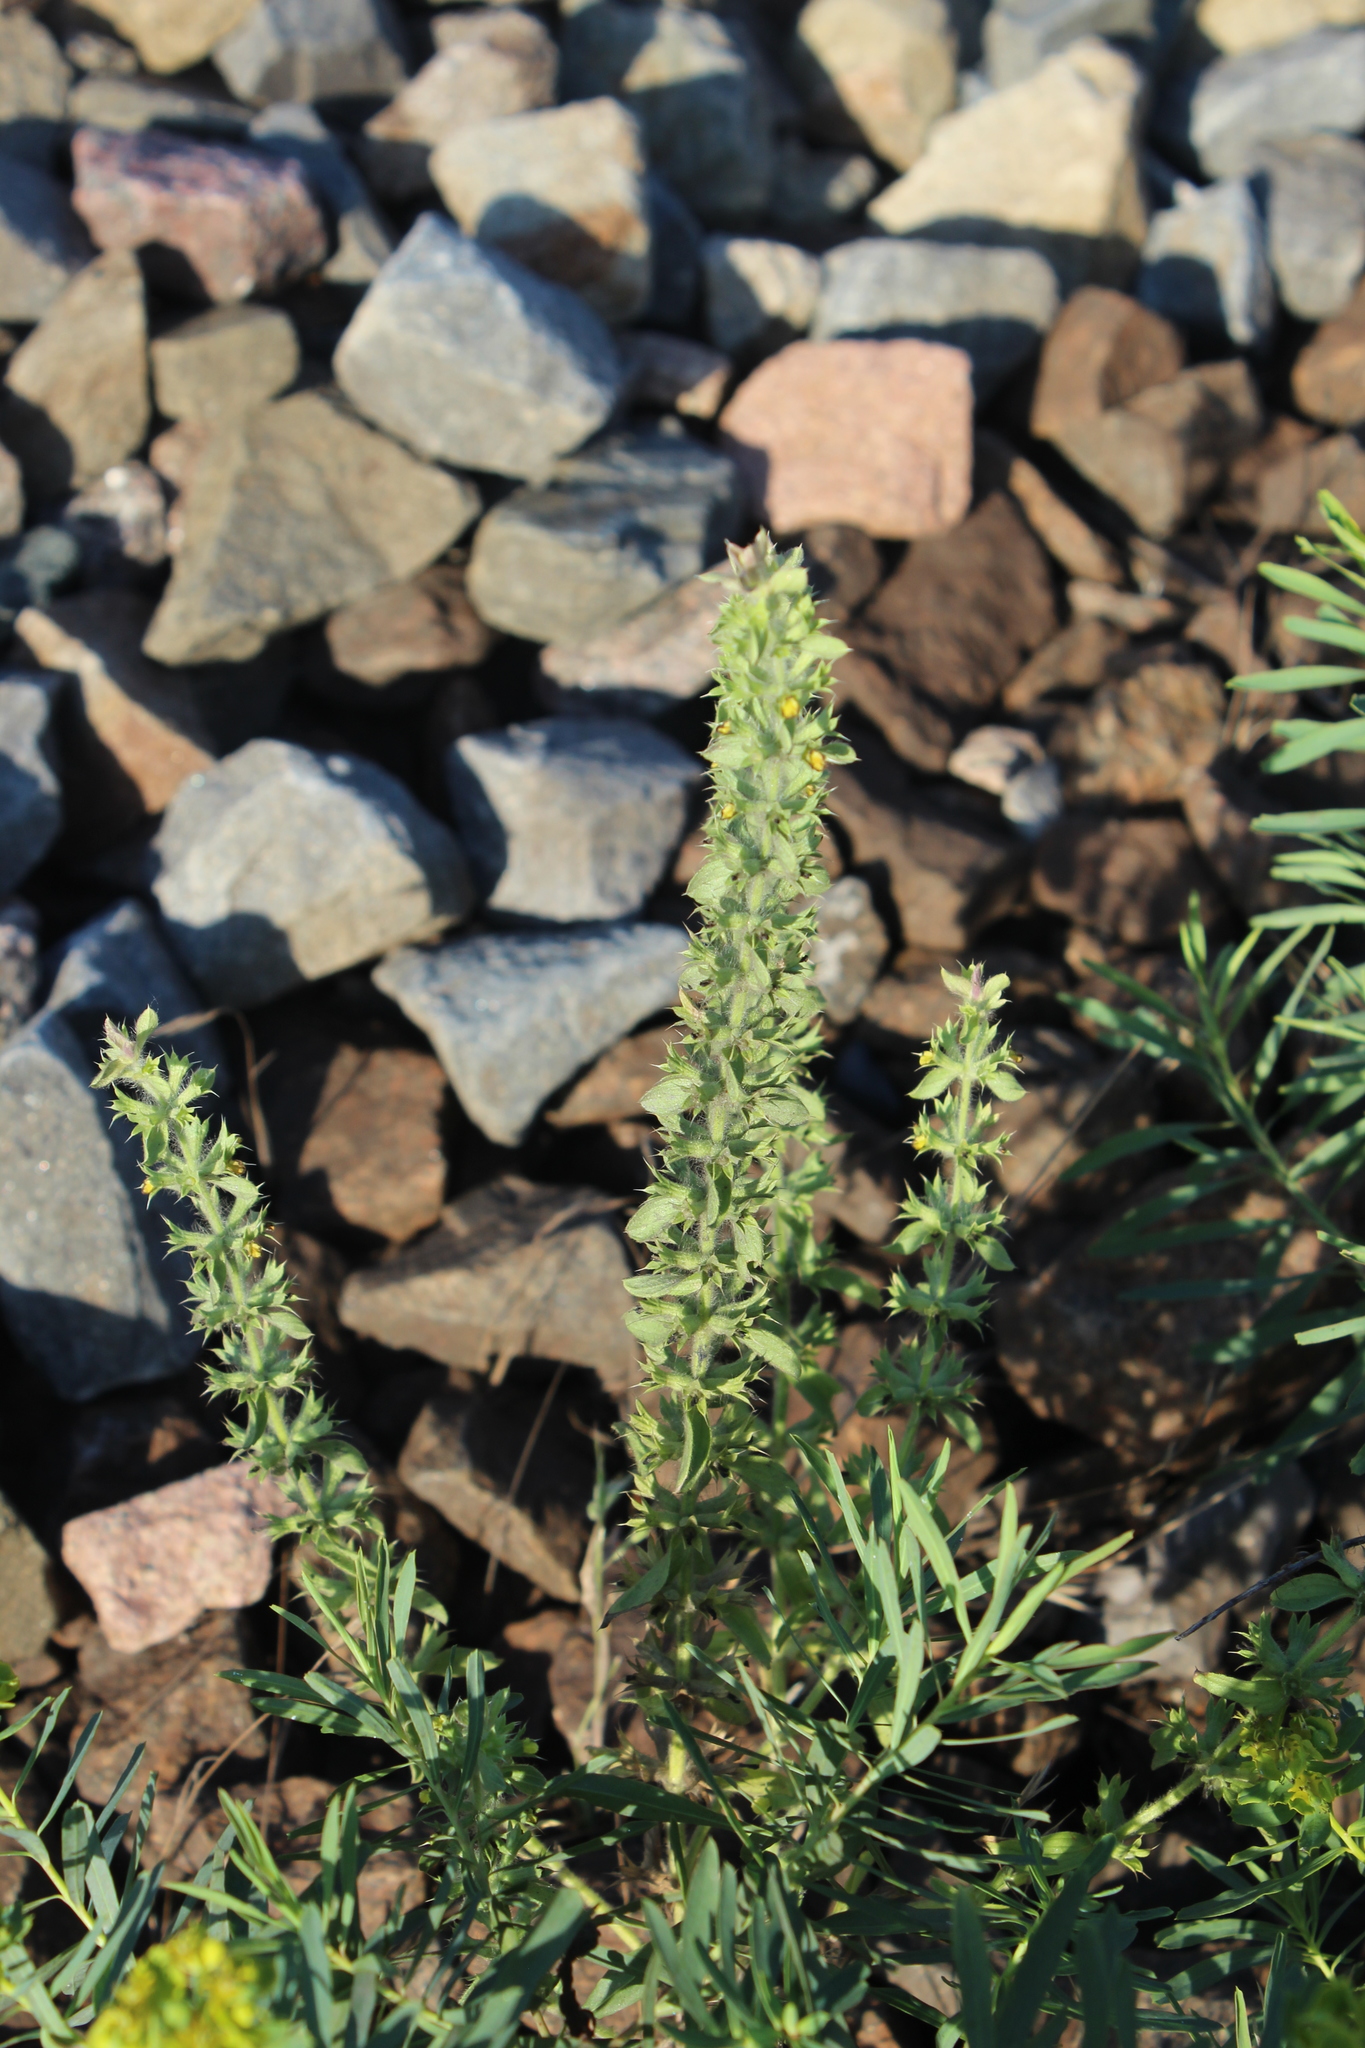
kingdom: Plantae
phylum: Tracheophyta
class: Magnoliopsida
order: Lamiales
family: Lamiaceae
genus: Sideritis
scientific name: Sideritis montana
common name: Mountain ironwort
